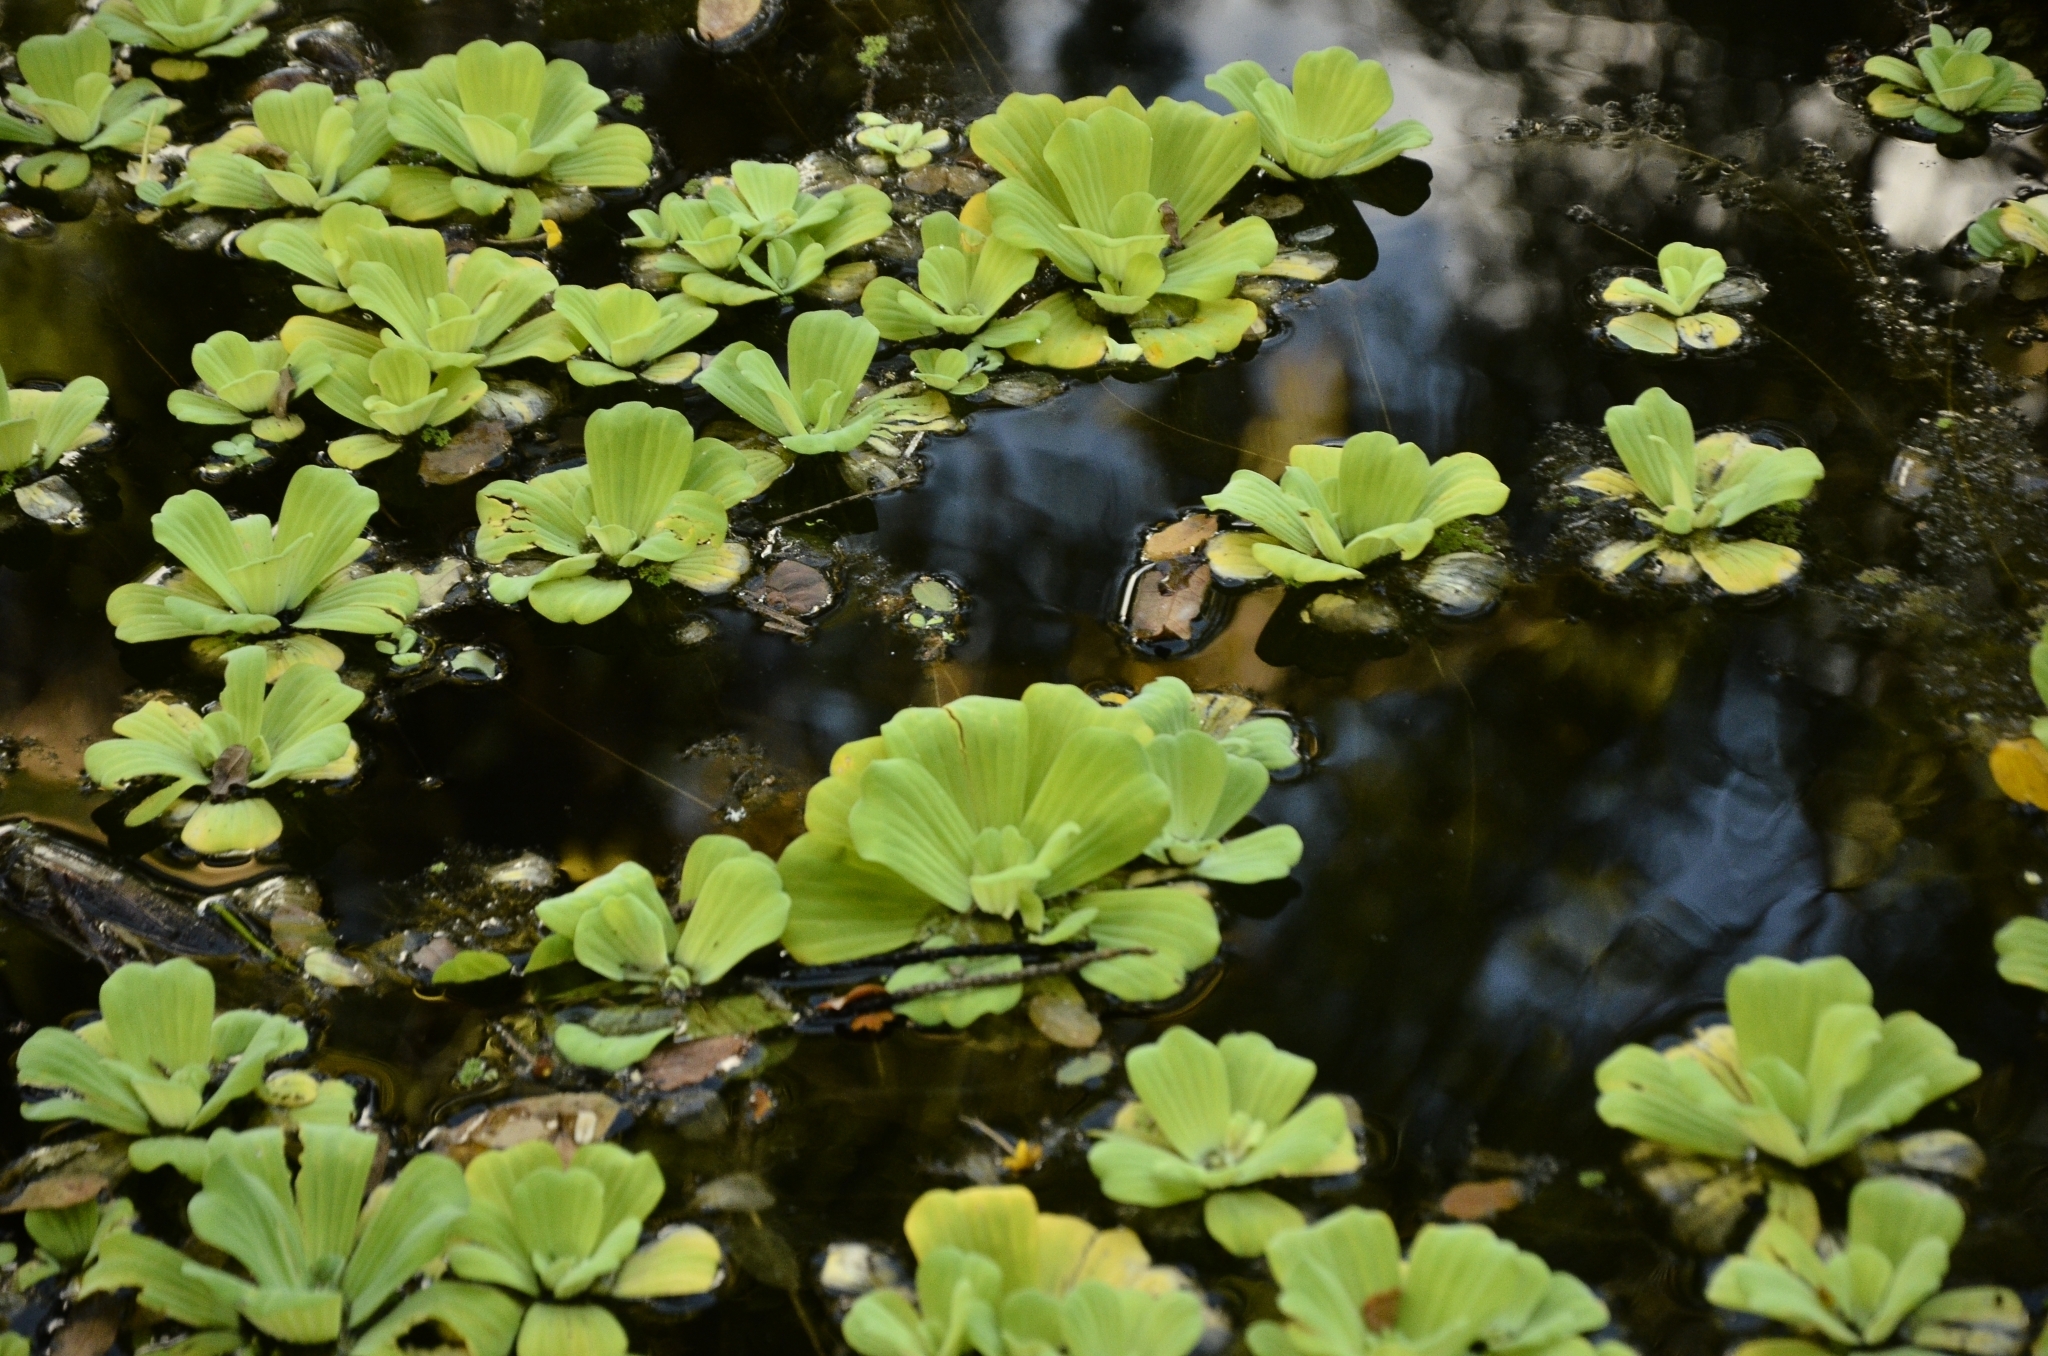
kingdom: Plantae
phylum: Tracheophyta
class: Liliopsida
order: Alismatales
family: Araceae
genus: Pistia
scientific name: Pistia stratiotes
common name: Water lettuce
